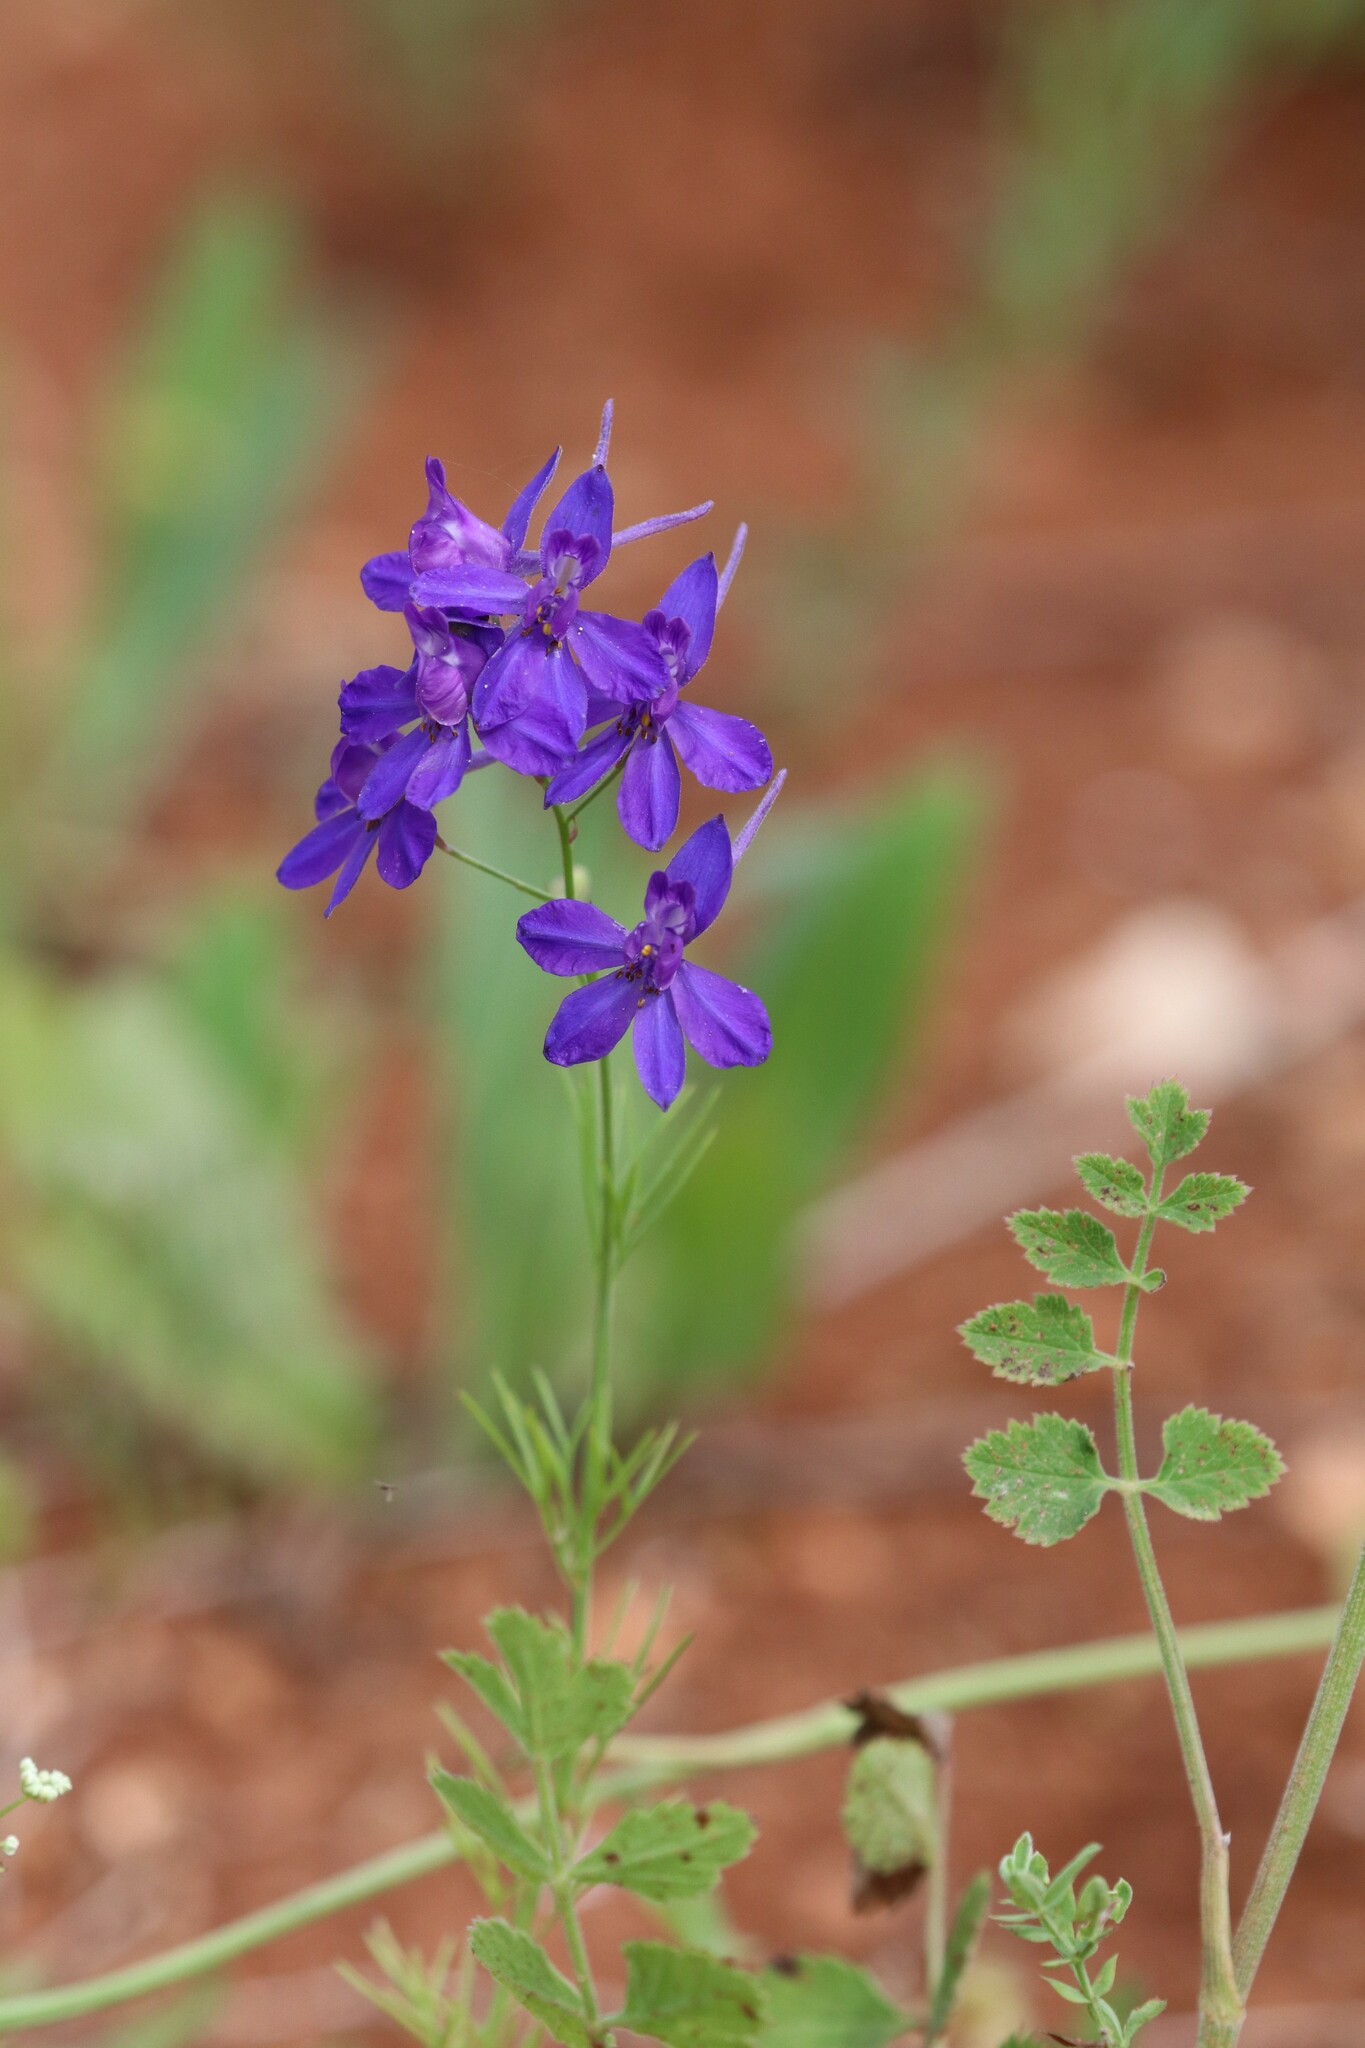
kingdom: Plantae
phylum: Tracheophyta
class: Magnoliopsida
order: Ranunculales
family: Ranunculaceae
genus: Delphinium
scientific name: Delphinium consolida
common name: Branching larkspur
